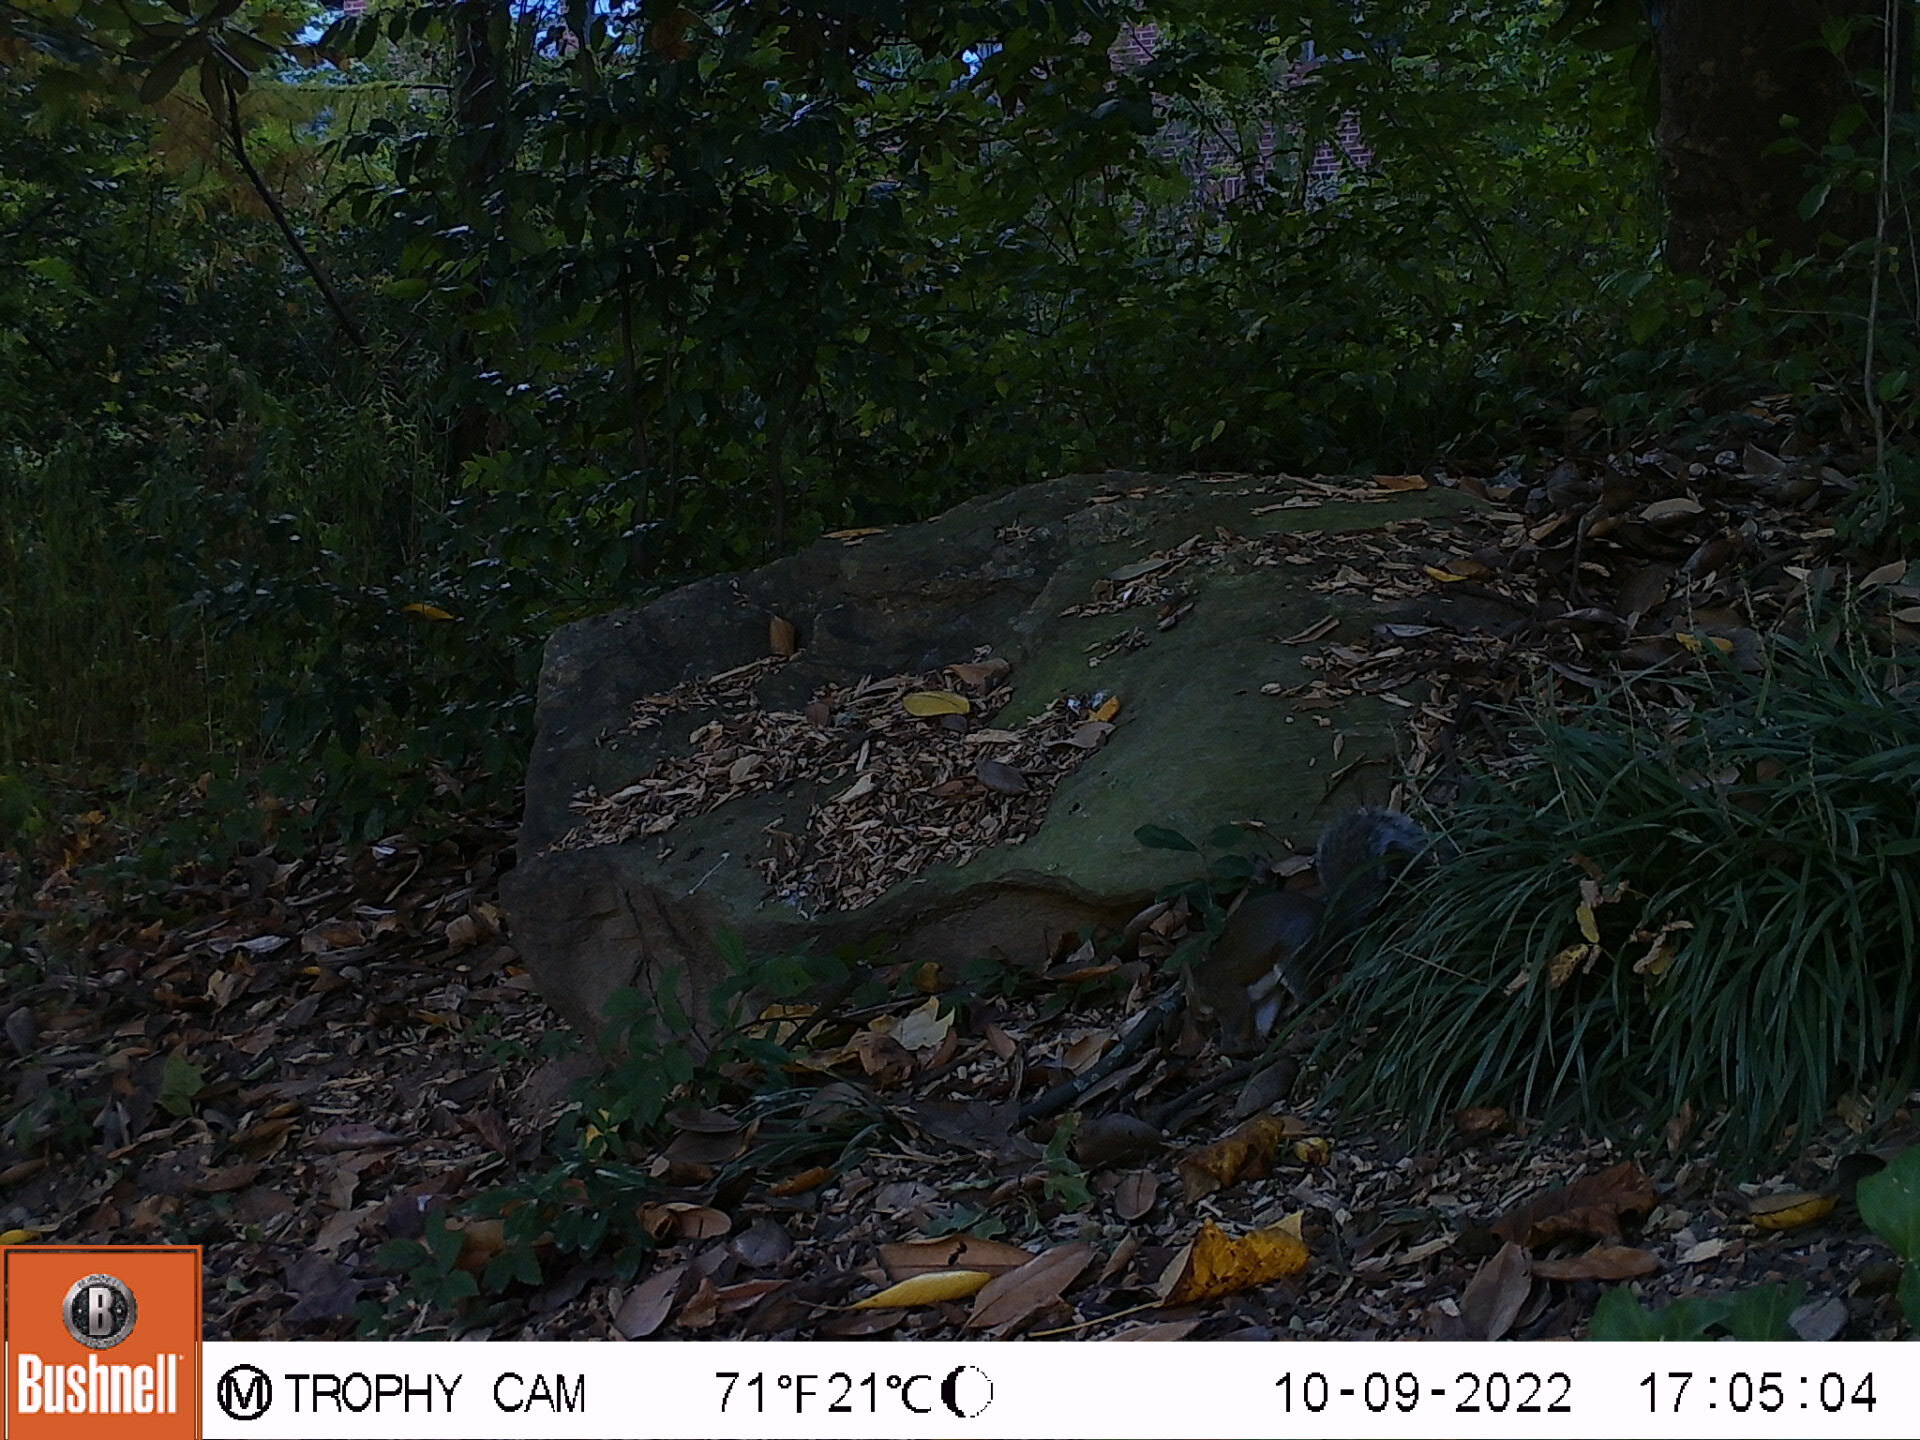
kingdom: Animalia
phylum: Chordata
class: Mammalia
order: Rodentia
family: Sciuridae
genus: Sciurus
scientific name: Sciurus carolinensis
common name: Eastern gray squirrel
